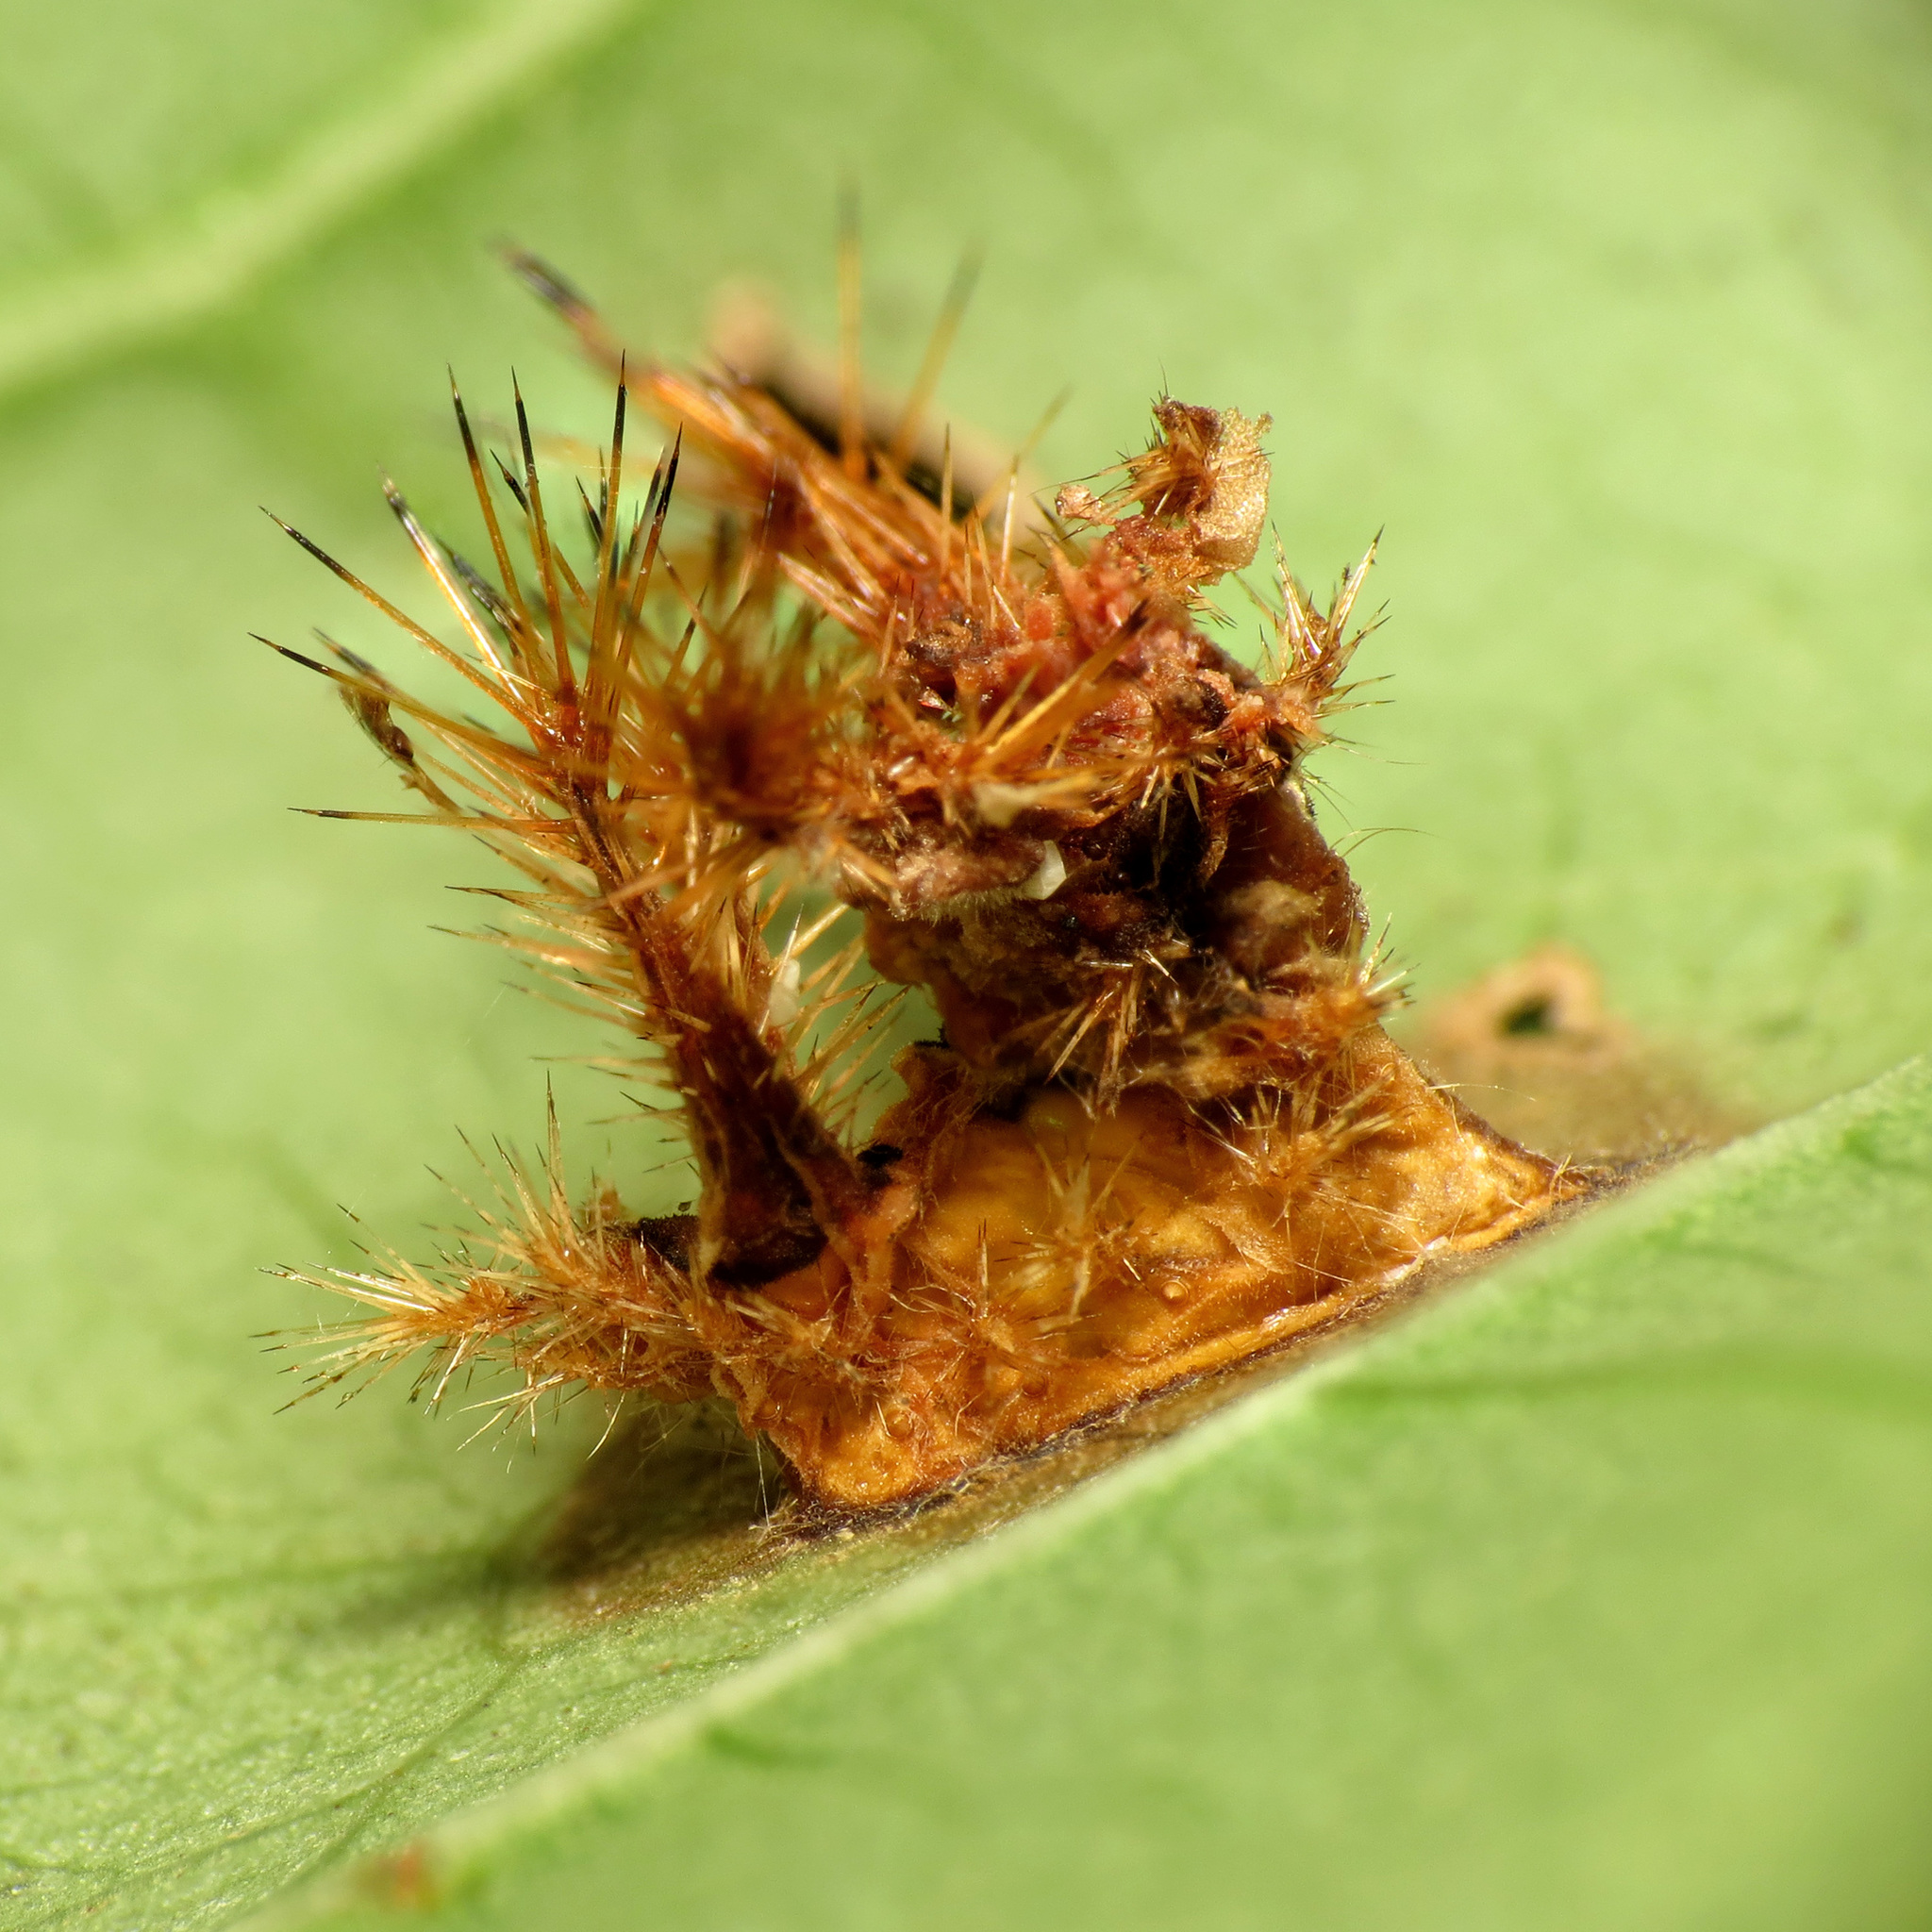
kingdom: Animalia
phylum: Arthropoda
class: Insecta
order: Lepidoptera
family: Limacodidae
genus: Acharia
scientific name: Acharia stimulea
